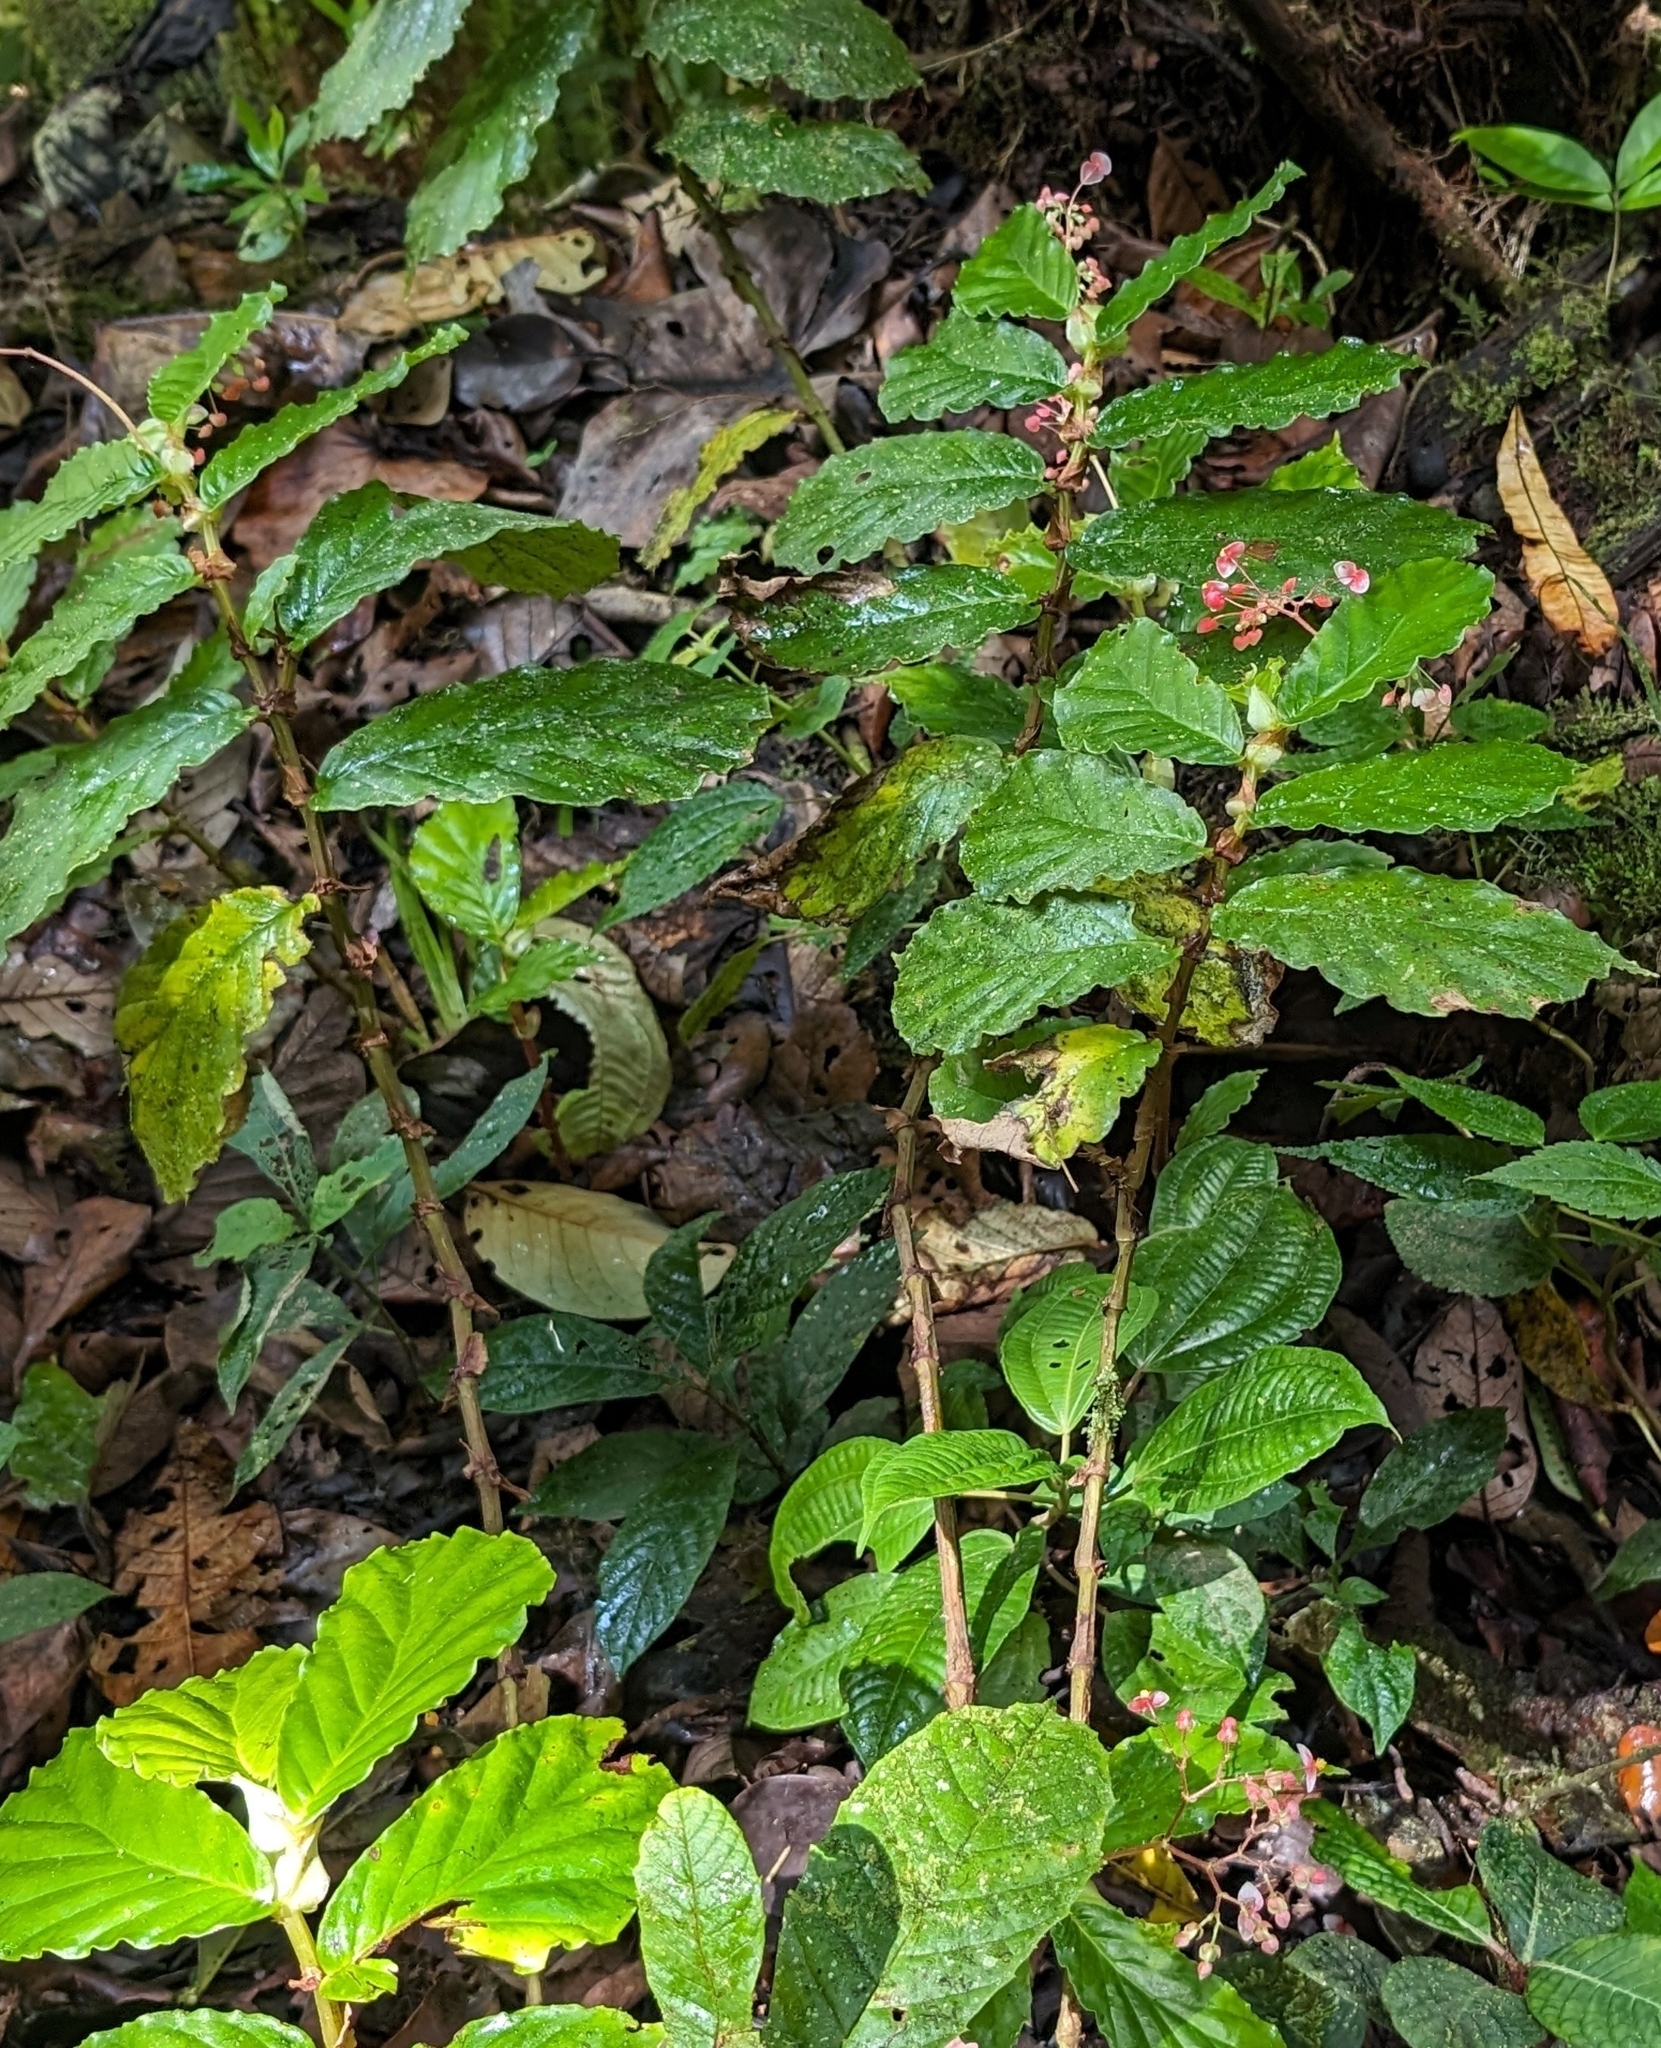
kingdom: Plantae
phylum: Tracheophyta
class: Magnoliopsida
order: Cucurbitales
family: Begoniaceae
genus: Begonia
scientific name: Begonia tonduzii
